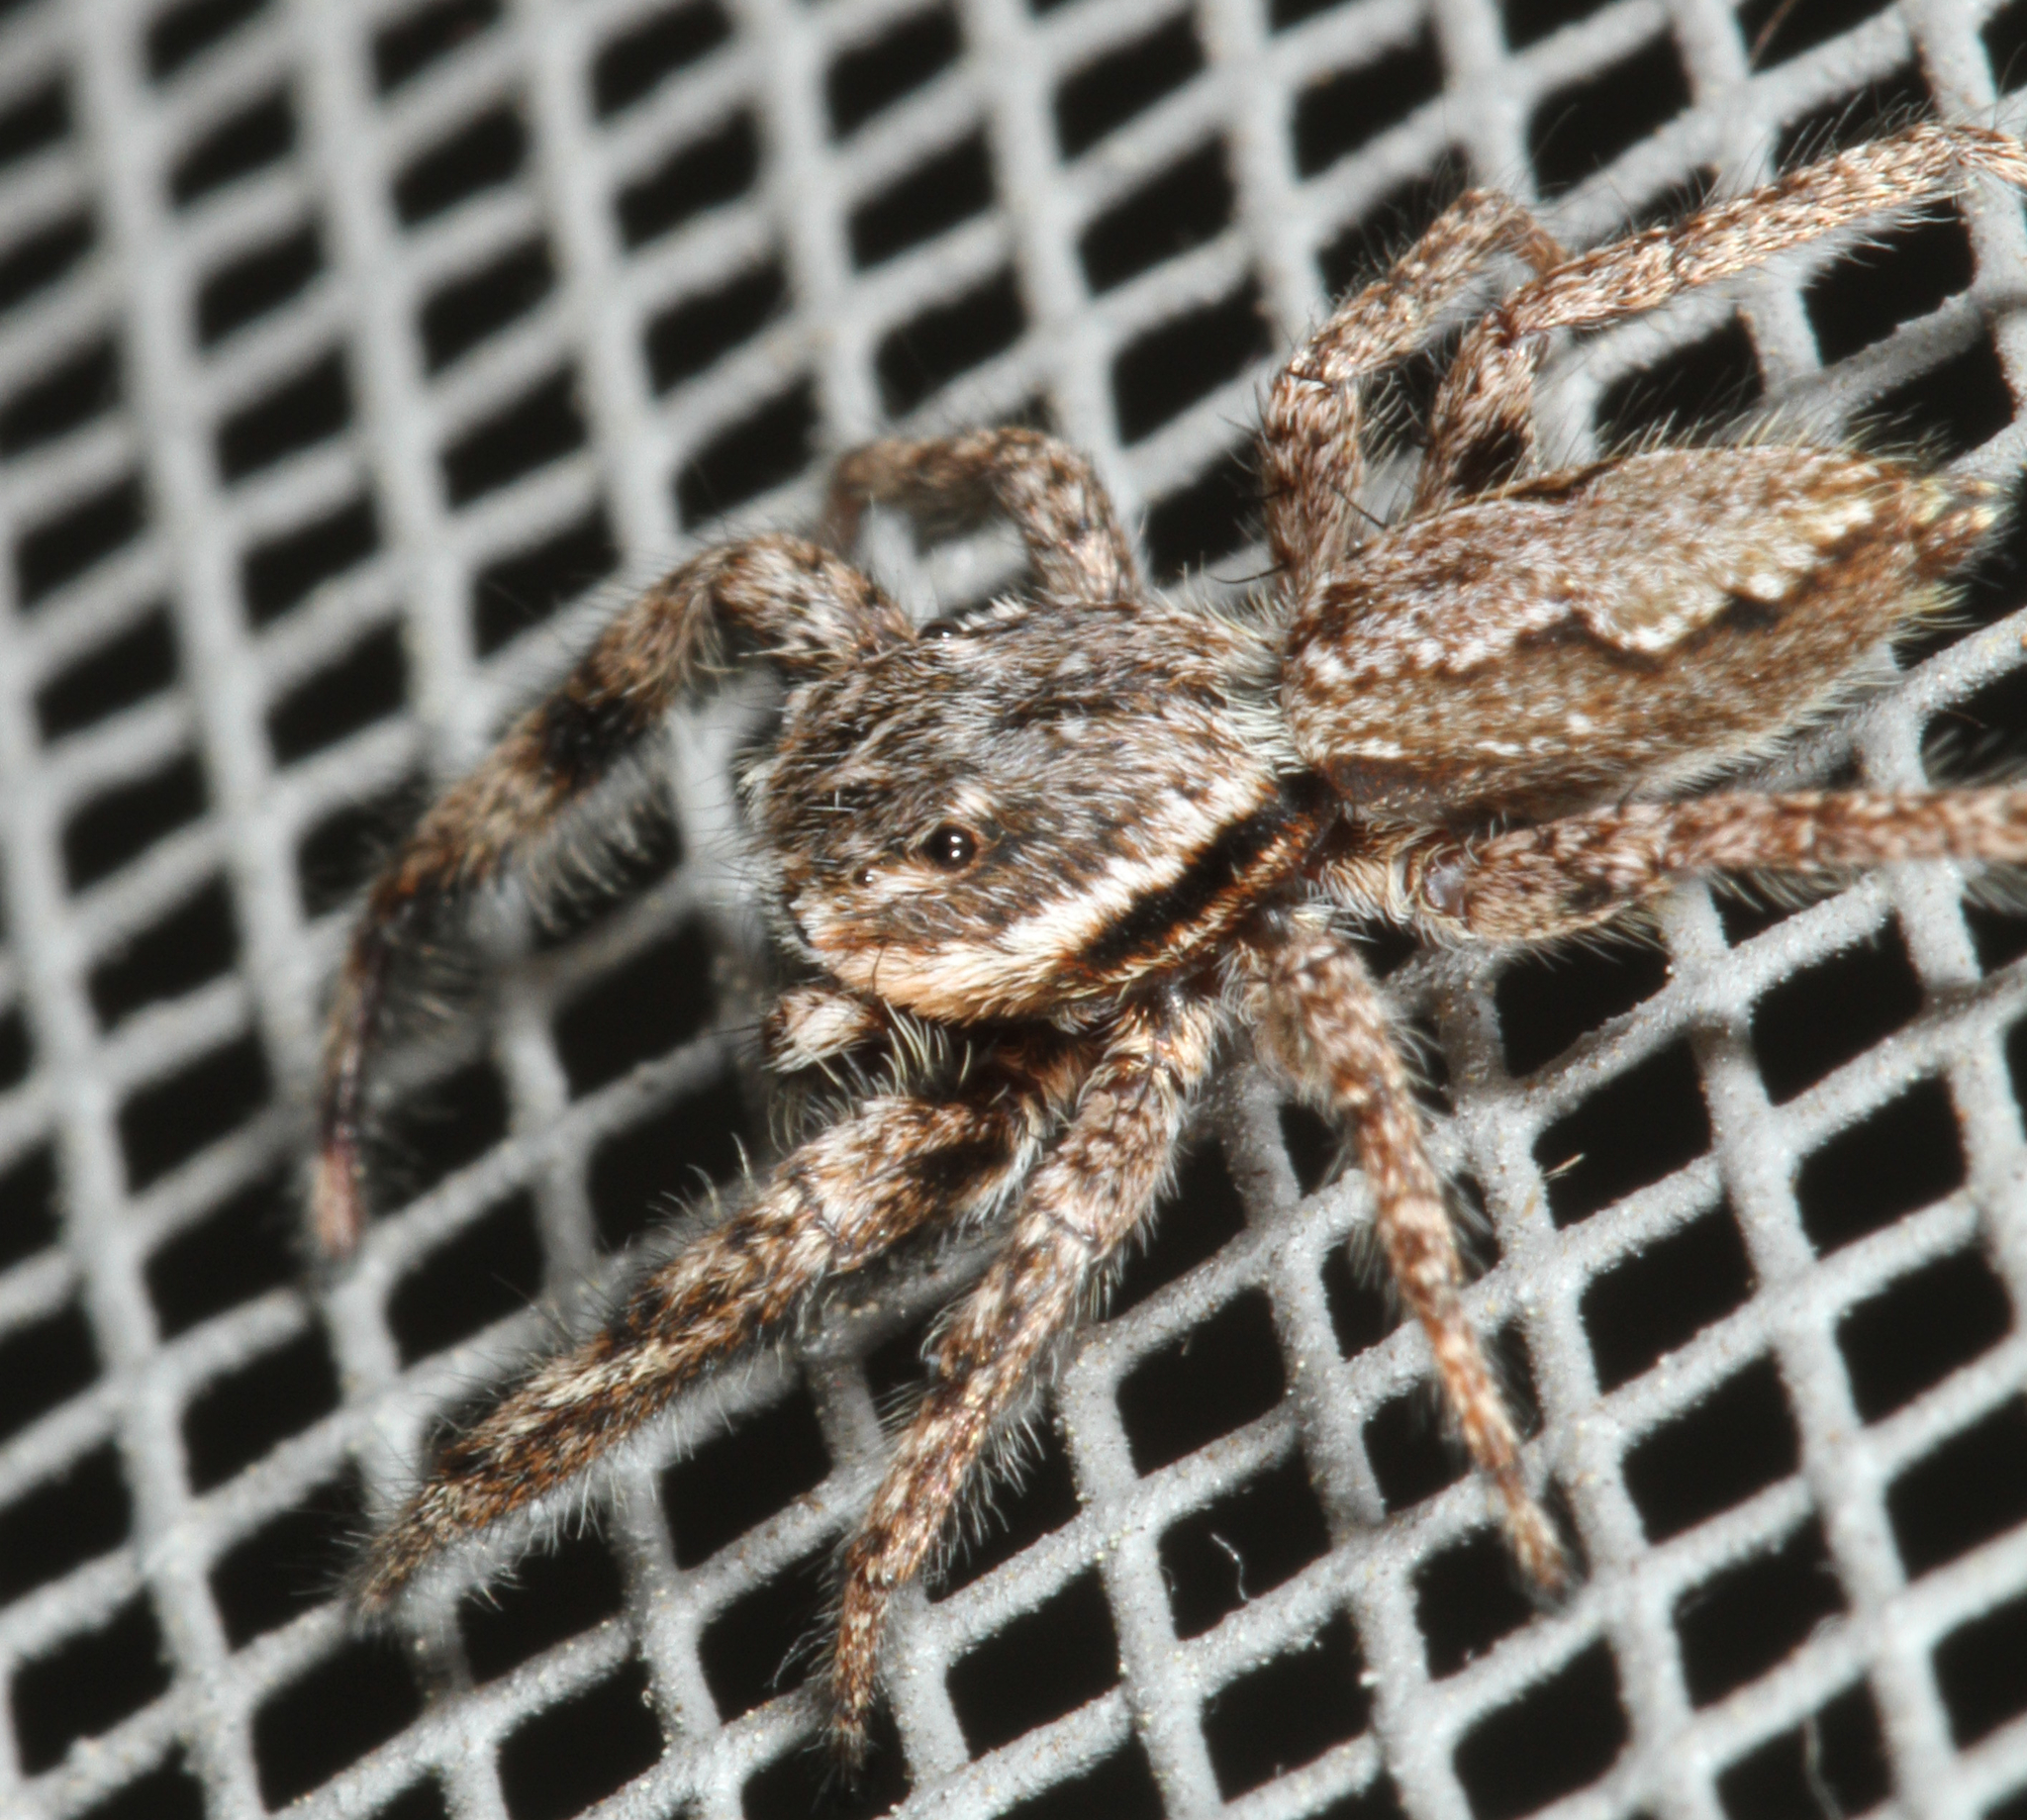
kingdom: Animalia
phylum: Arthropoda
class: Arachnida
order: Araneae
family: Salticidae
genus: Platycryptus
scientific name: Platycryptus undatus
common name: Tan jumping spider
